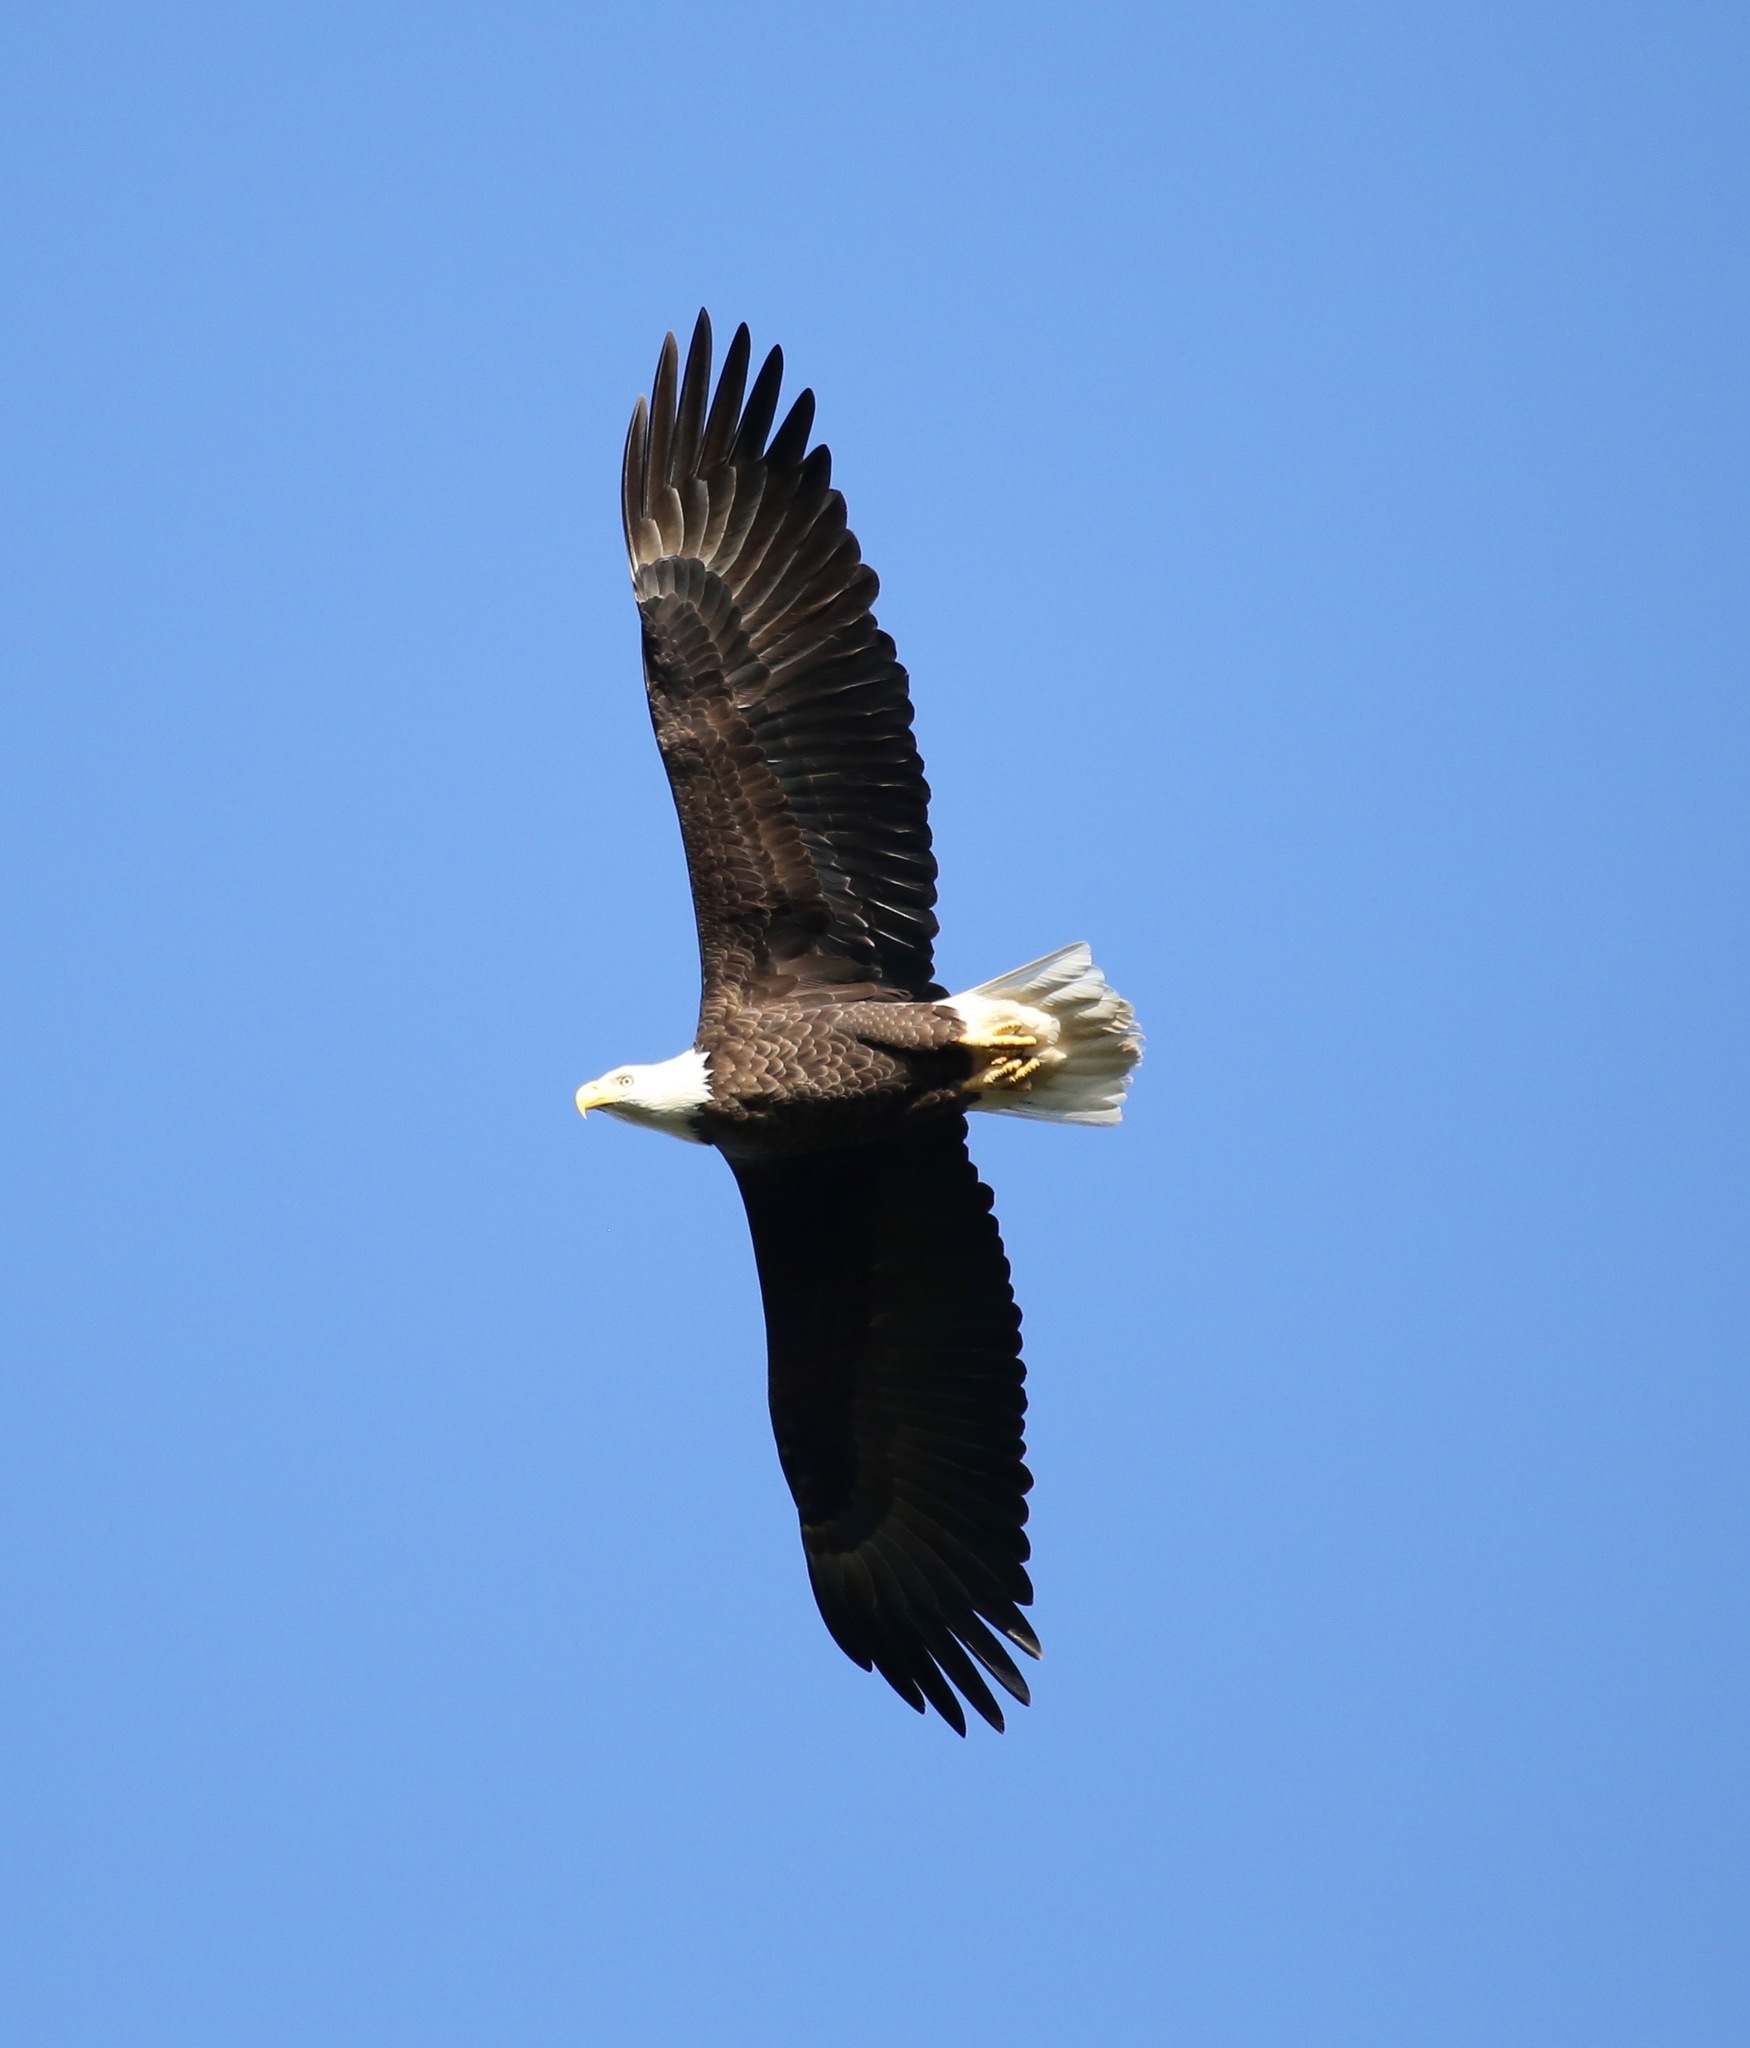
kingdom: Animalia
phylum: Chordata
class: Aves
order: Accipitriformes
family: Accipitridae
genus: Haliaeetus
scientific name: Haliaeetus leucocephalus
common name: Bald eagle
